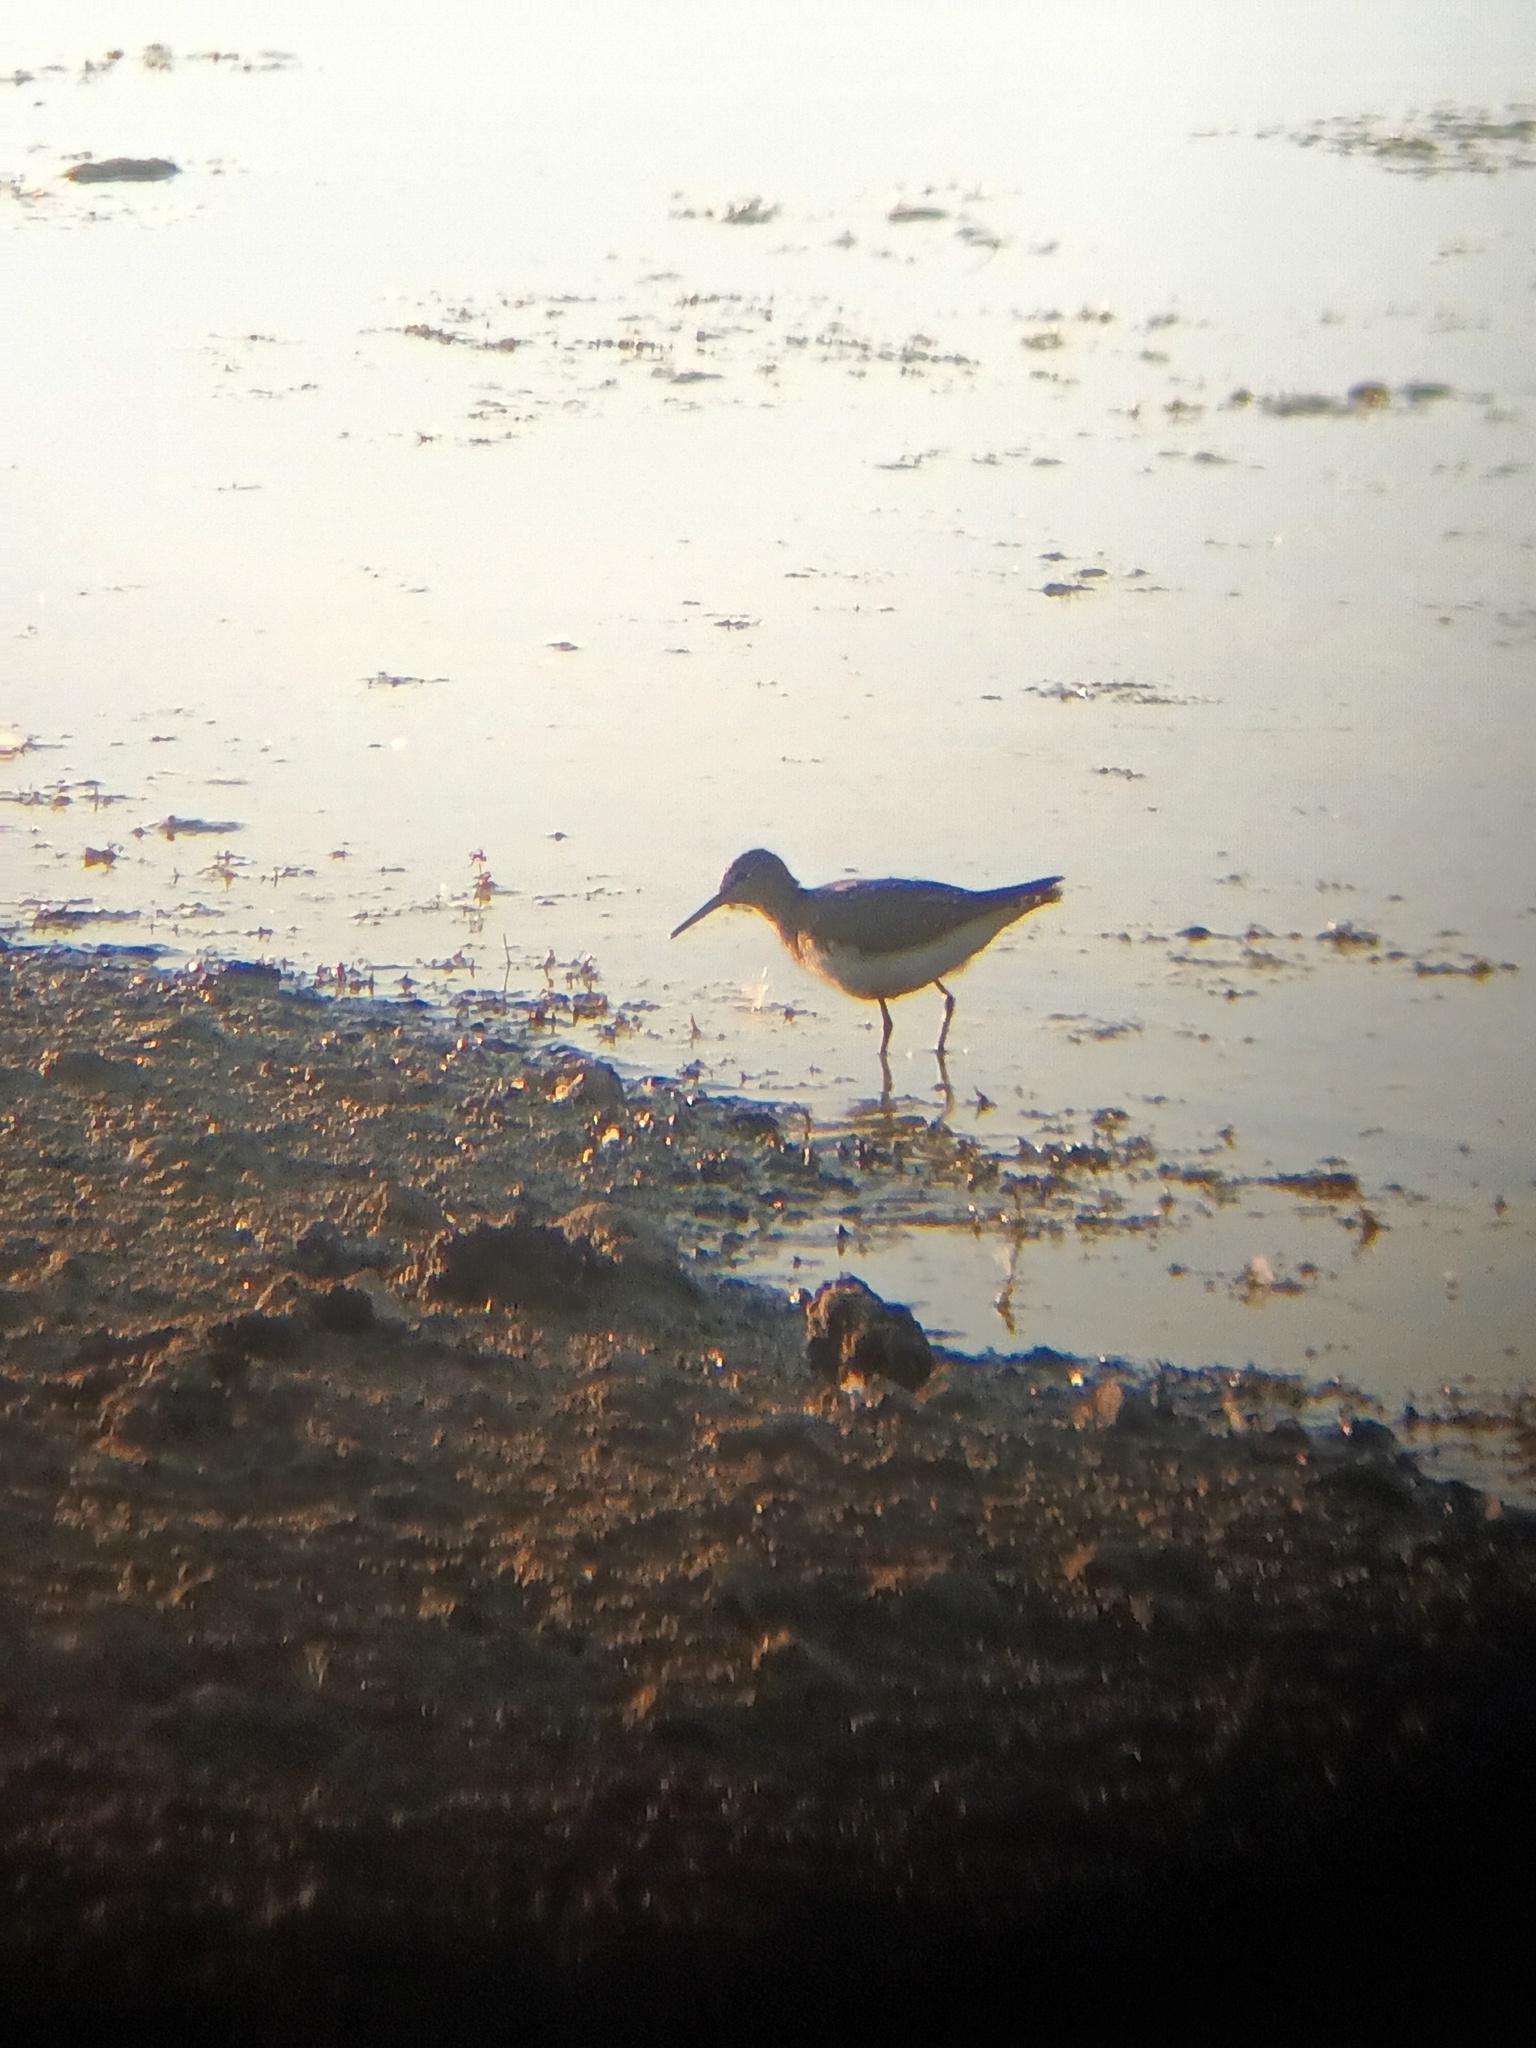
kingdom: Animalia
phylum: Chordata
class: Aves
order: Charadriiformes
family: Scolopacidae
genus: Tringa
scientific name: Tringa ochropus
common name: Green sandpiper
